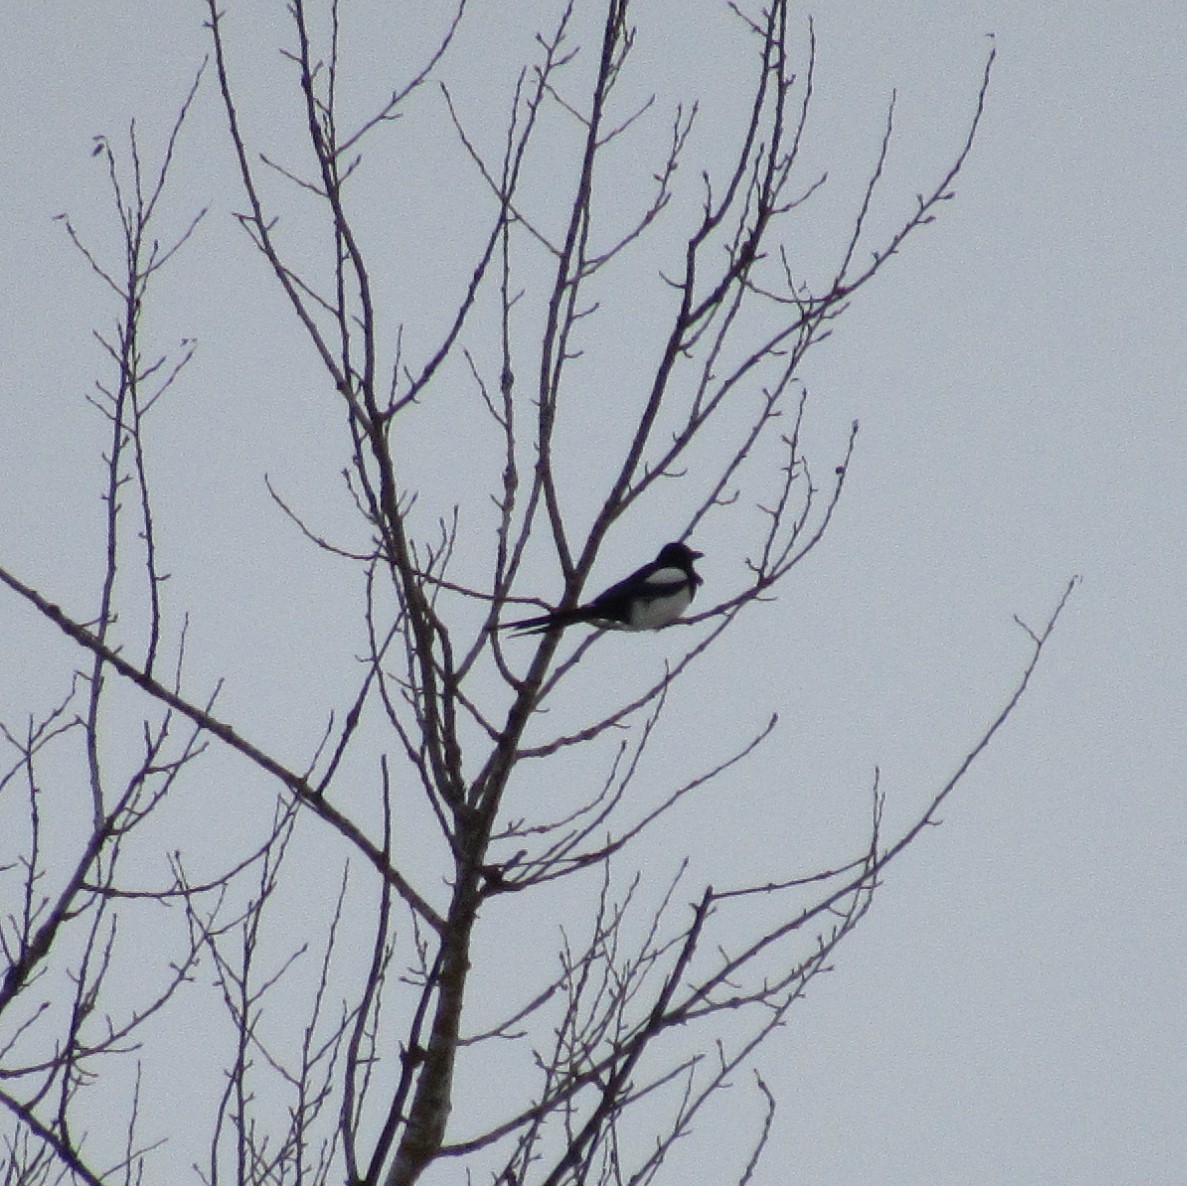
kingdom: Animalia
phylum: Chordata
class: Aves
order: Passeriformes
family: Corvidae
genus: Pica
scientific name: Pica pica
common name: Eurasian magpie
